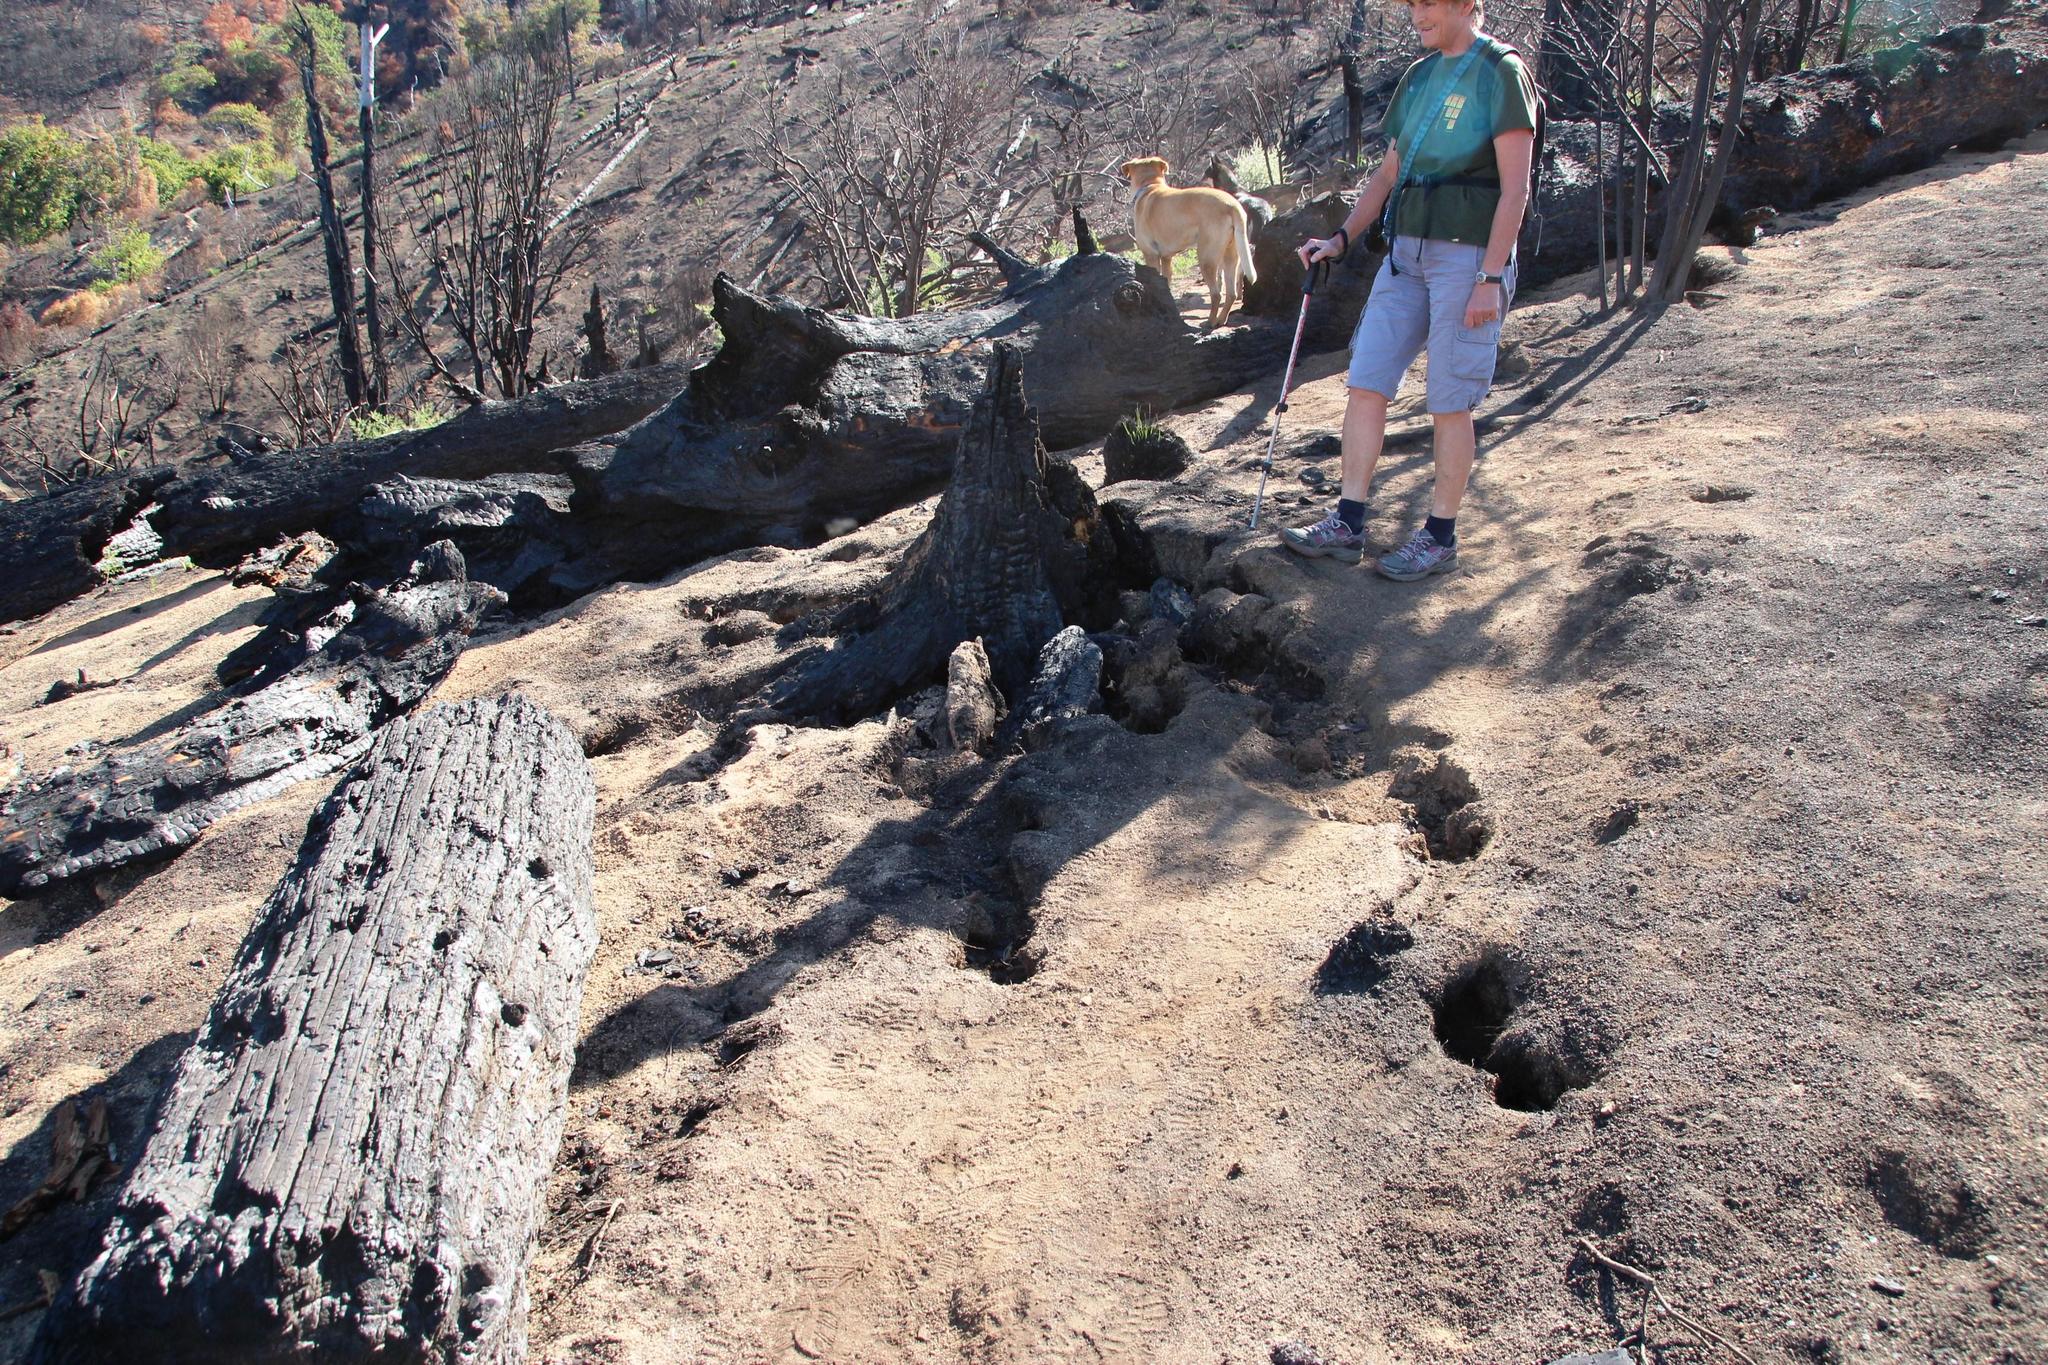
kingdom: Plantae
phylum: Tracheophyta
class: Pinopsida
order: Pinales
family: Pinaceae
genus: Pinus
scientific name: Pinus pinea
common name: Italian stone pine
